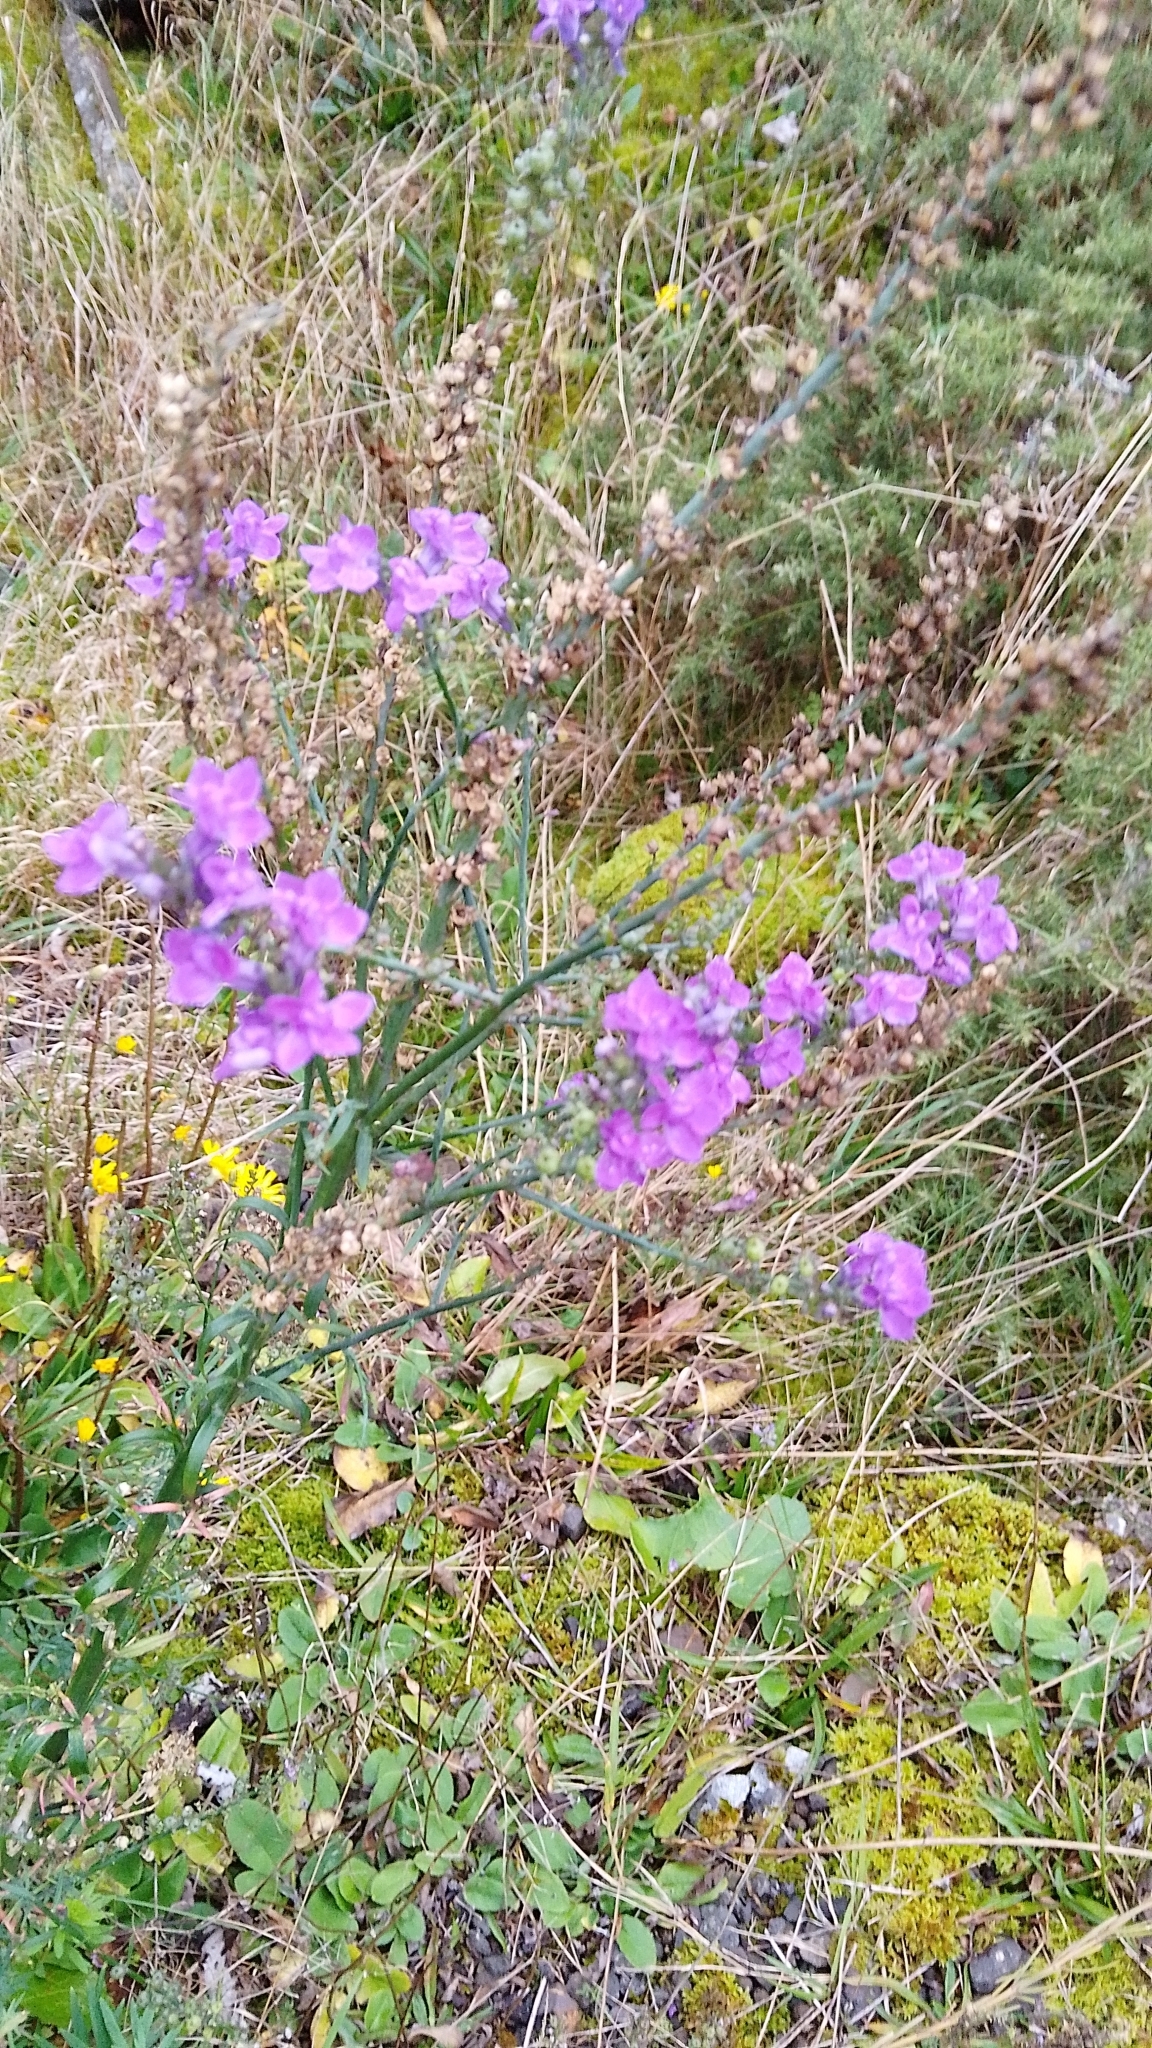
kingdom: Plantae
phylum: Tracheophyta
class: Magnoliopsida
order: Lamiales
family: Plantaginaceae
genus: Linaria
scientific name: Linaria purpurea
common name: Purple toadflax
